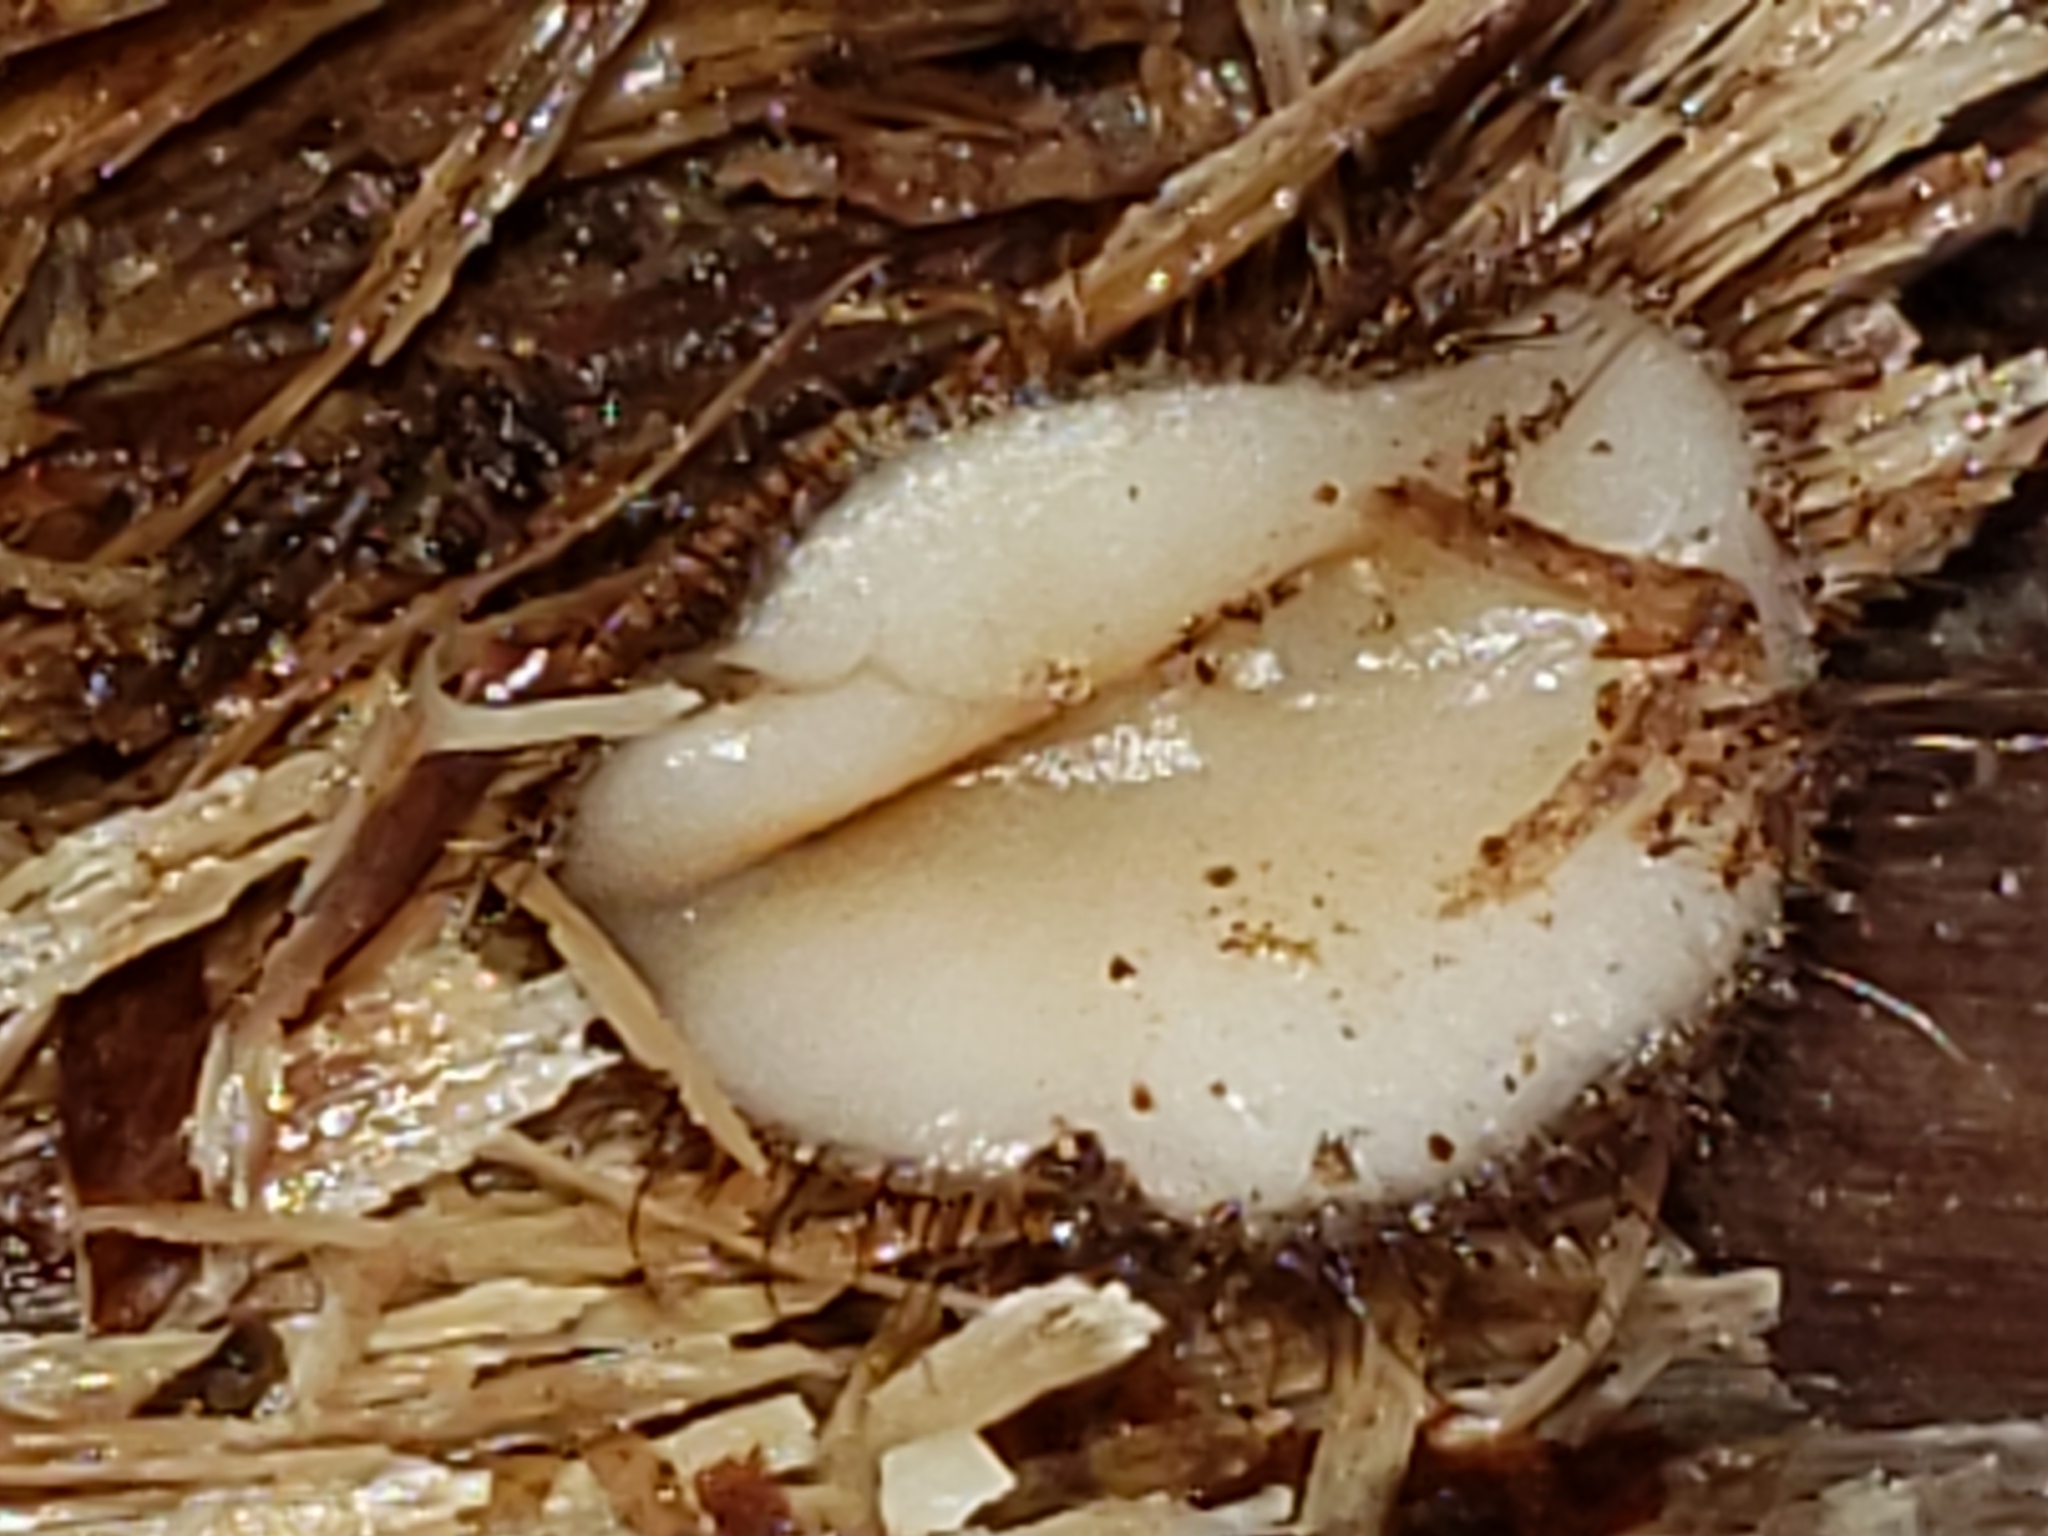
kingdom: Fungi
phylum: Ascomycota
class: Pezizomycetes
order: Pezizales
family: Pyronemataceae
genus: Trichophaeopsis
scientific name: Trichophaeopsis bicuspis
